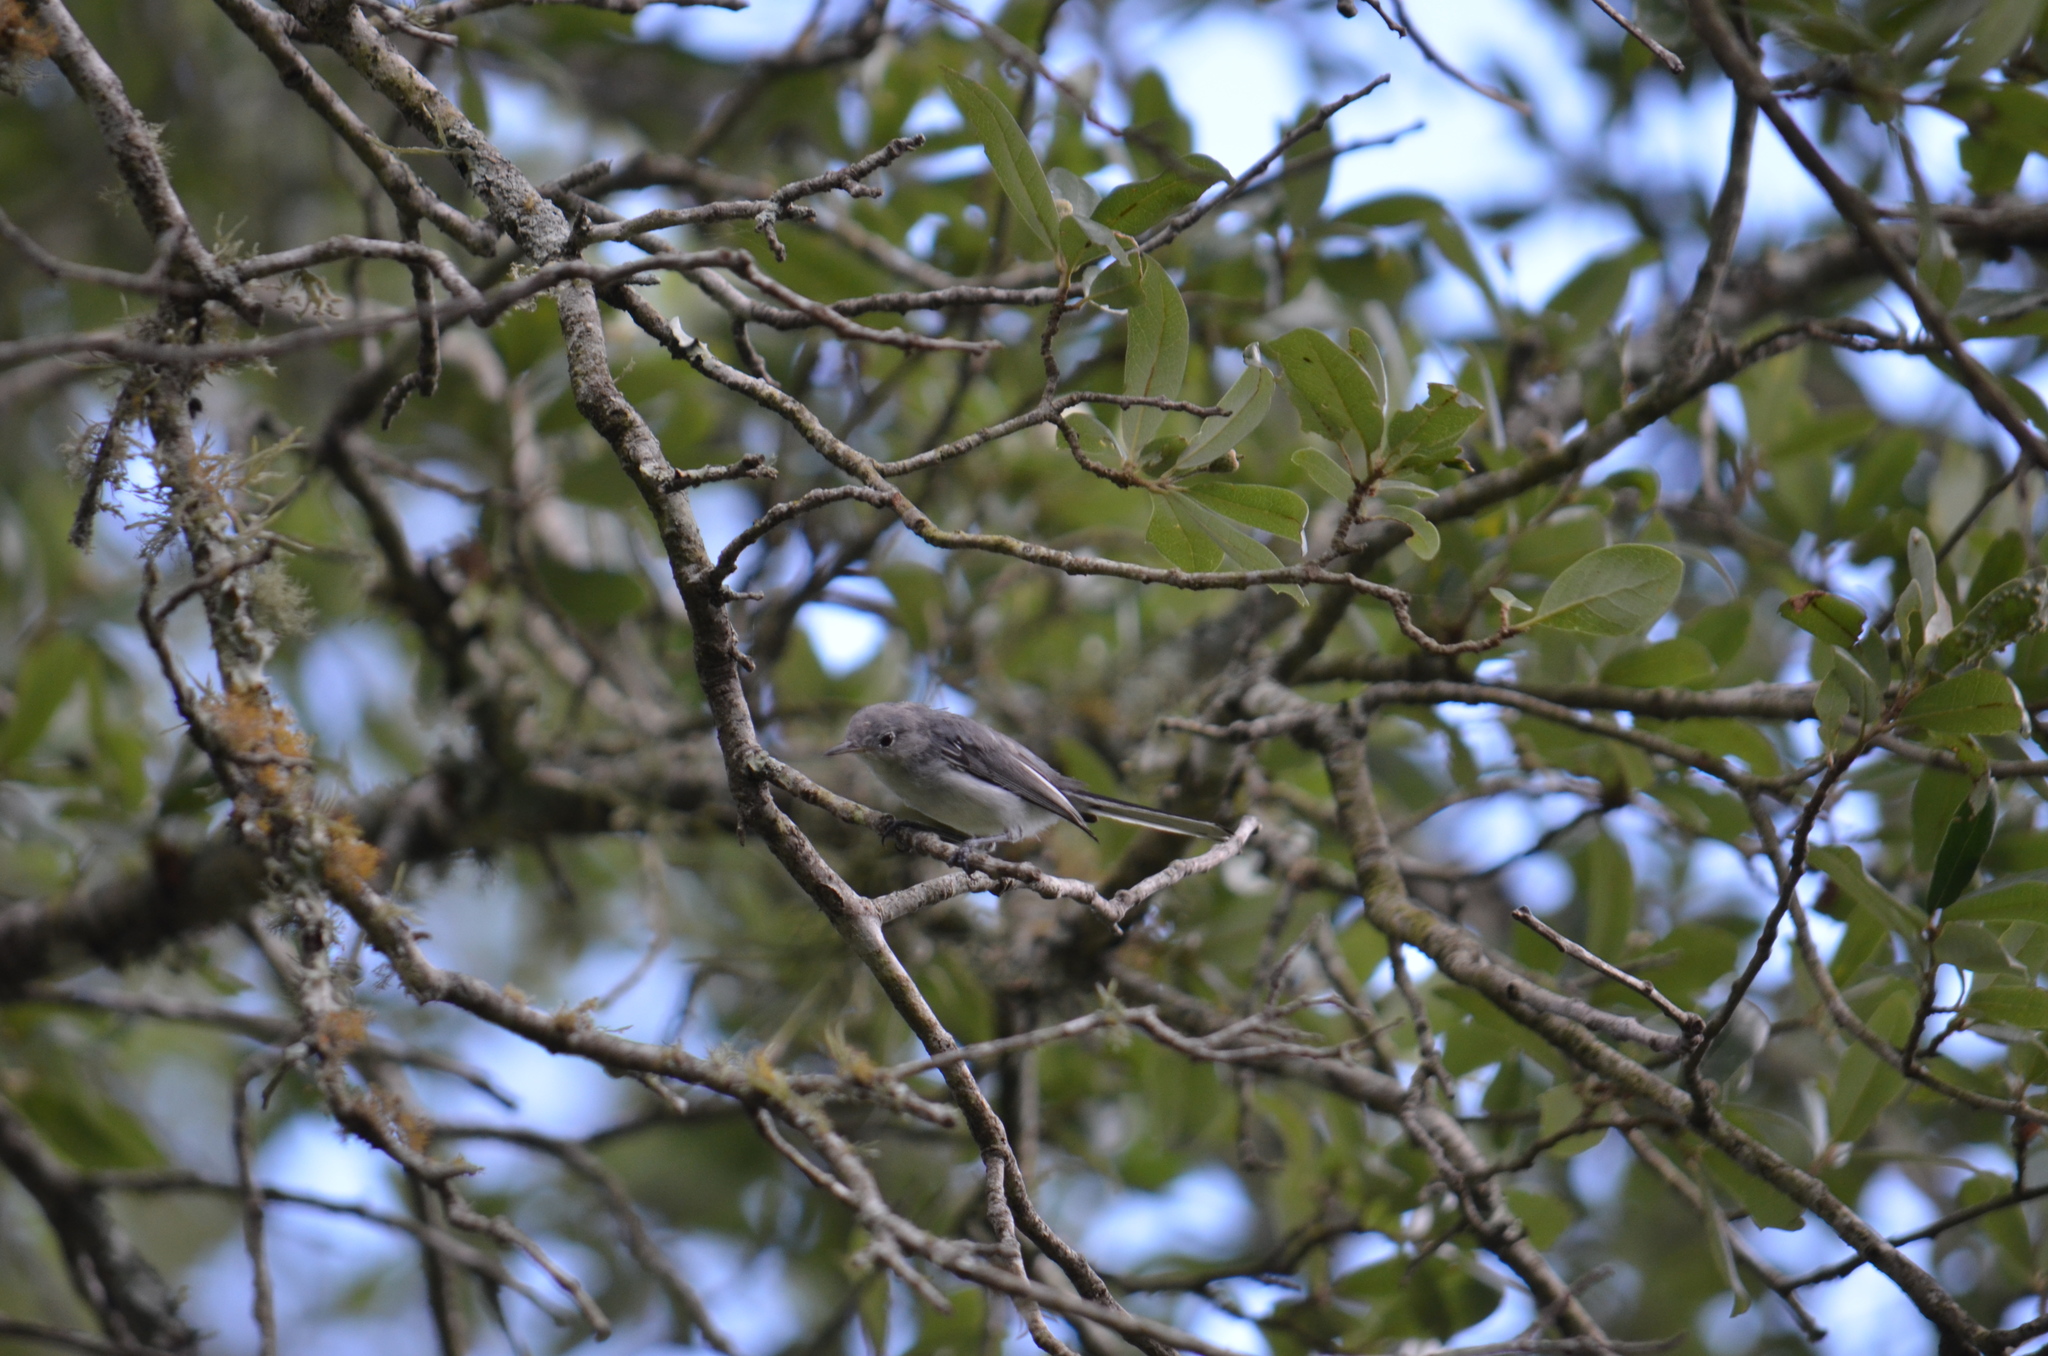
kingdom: Animalia
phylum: Chordata
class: Aves
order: Passeriformes
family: Polioptilidae
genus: Polioptila
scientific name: Polioptila caerulea
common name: Blue-gray gnatcatcher
